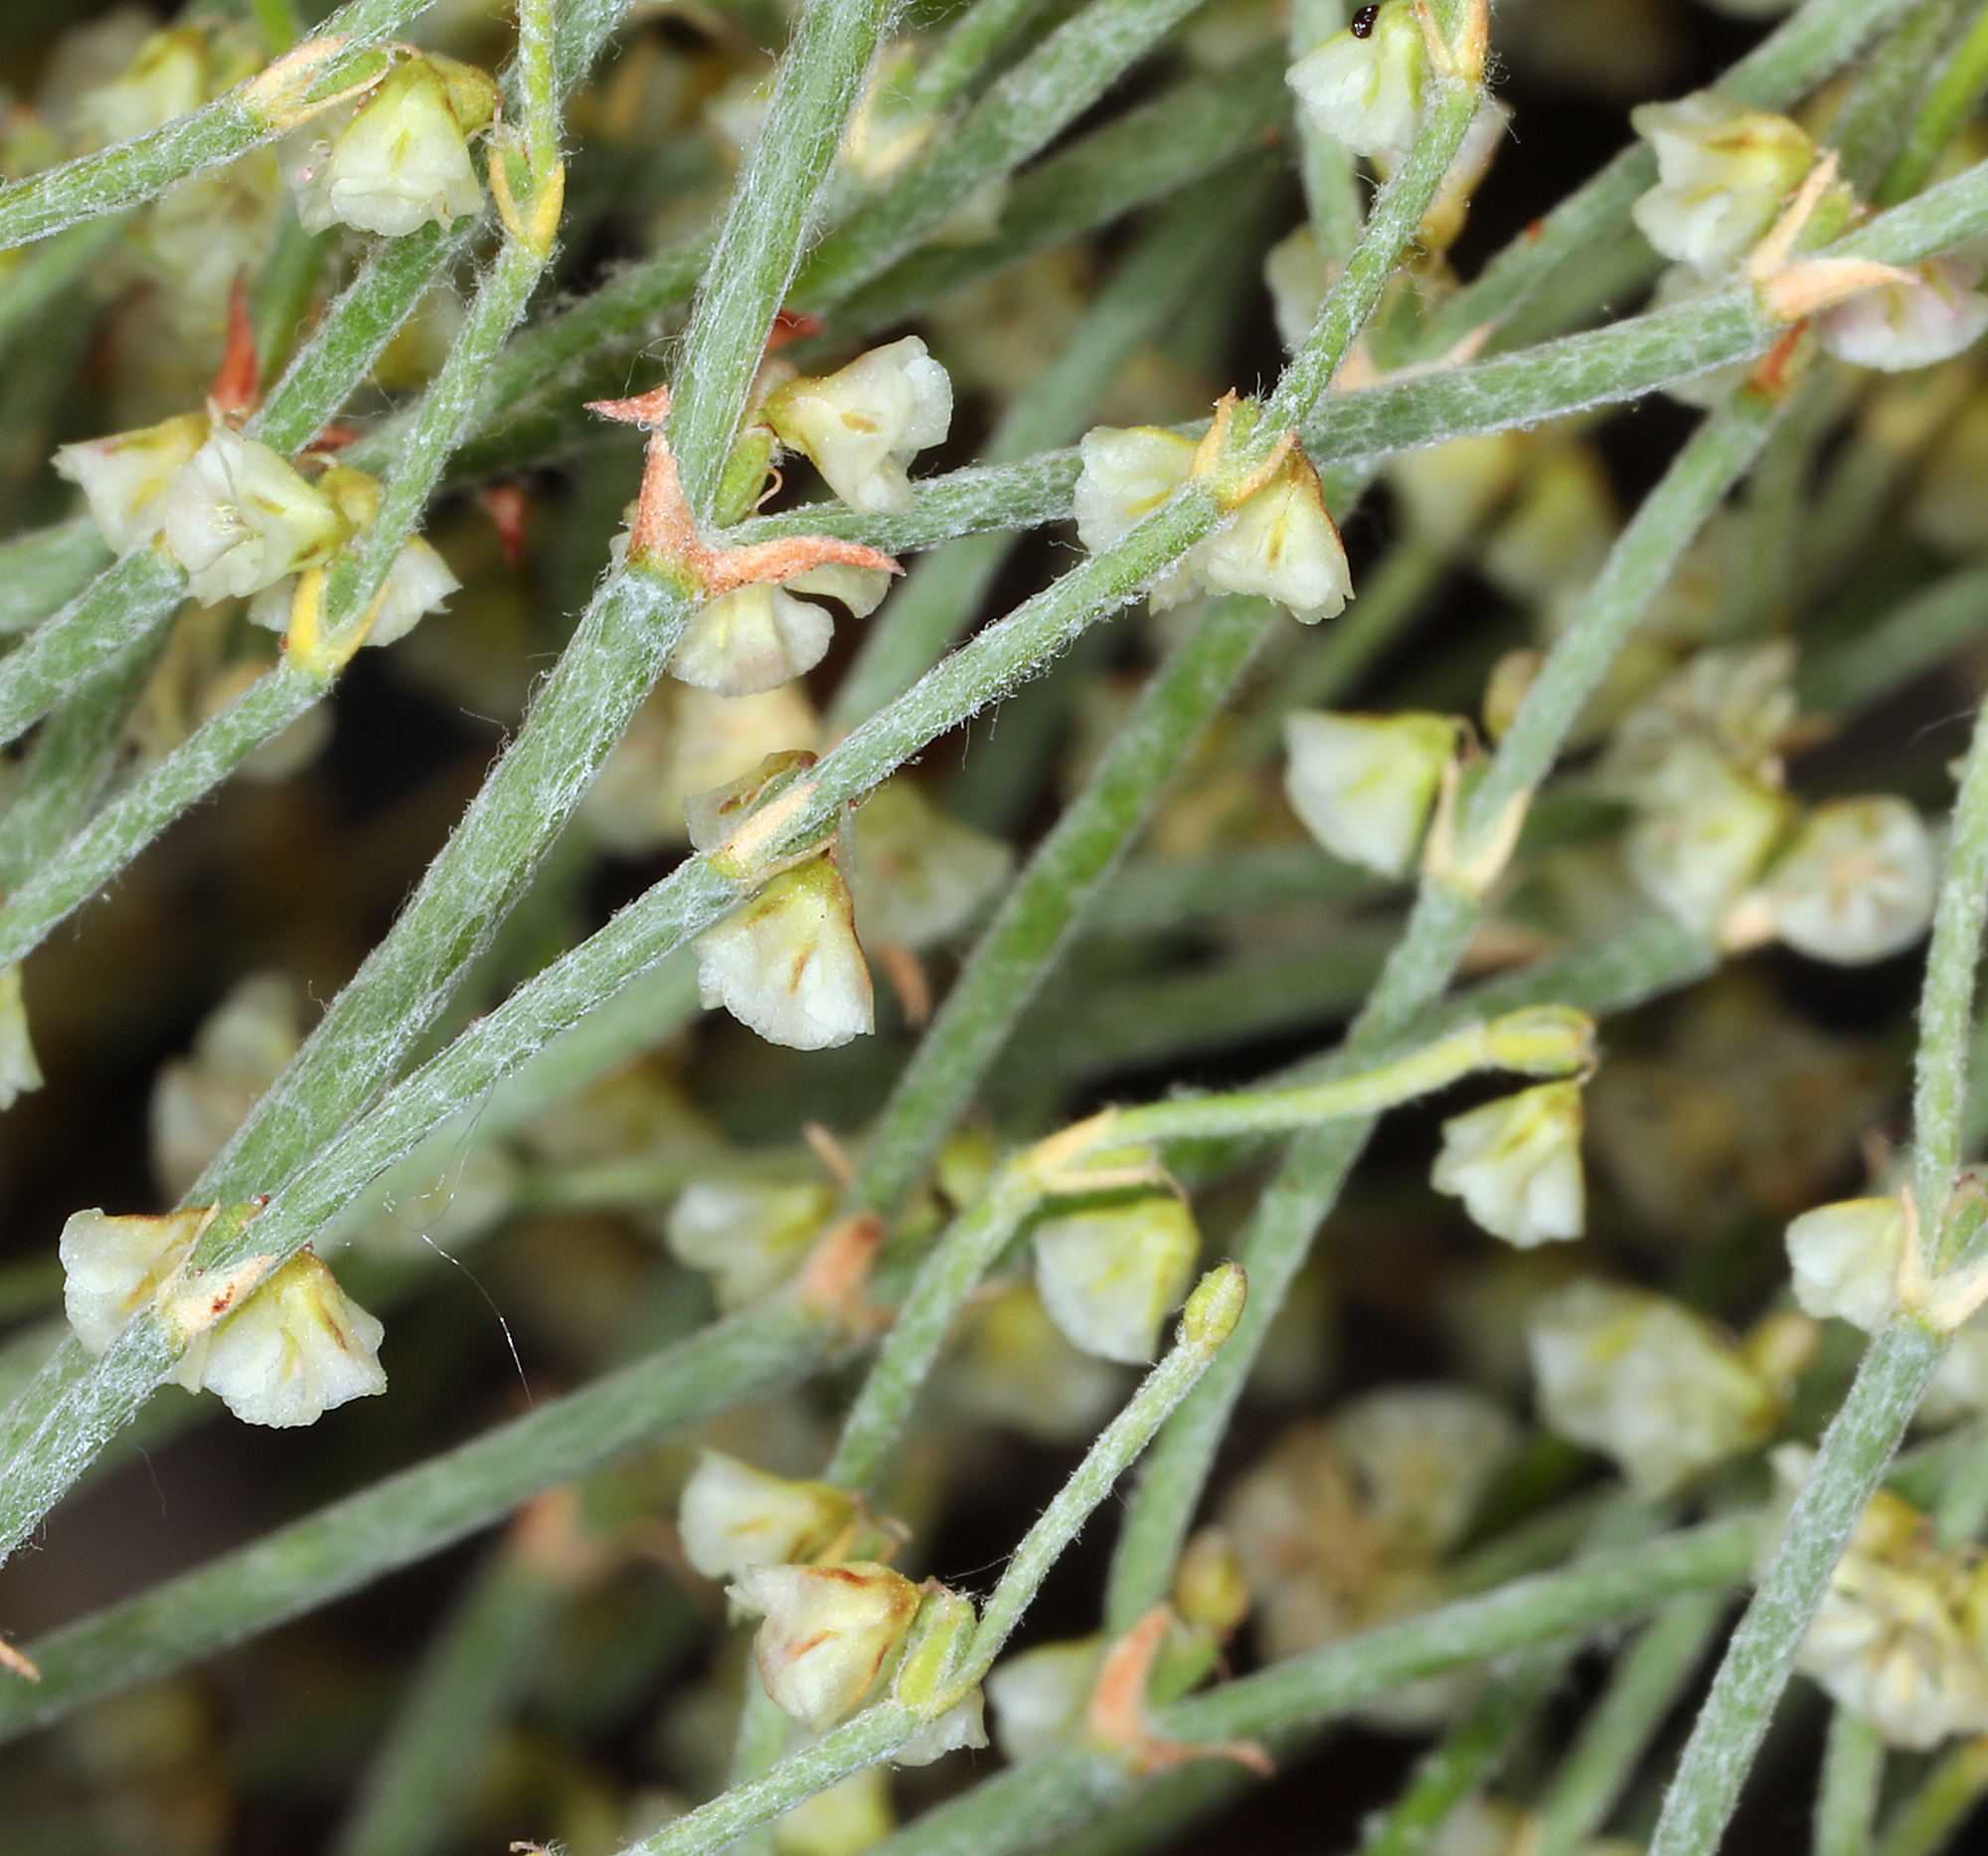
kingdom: Plantae
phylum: Tracheophyta
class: Magnoliopsida
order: Caryophyllales
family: Polygonaceae
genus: Eriogonum
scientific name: Eriogonum nidularium
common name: Bird's-nest wild buckwheat
